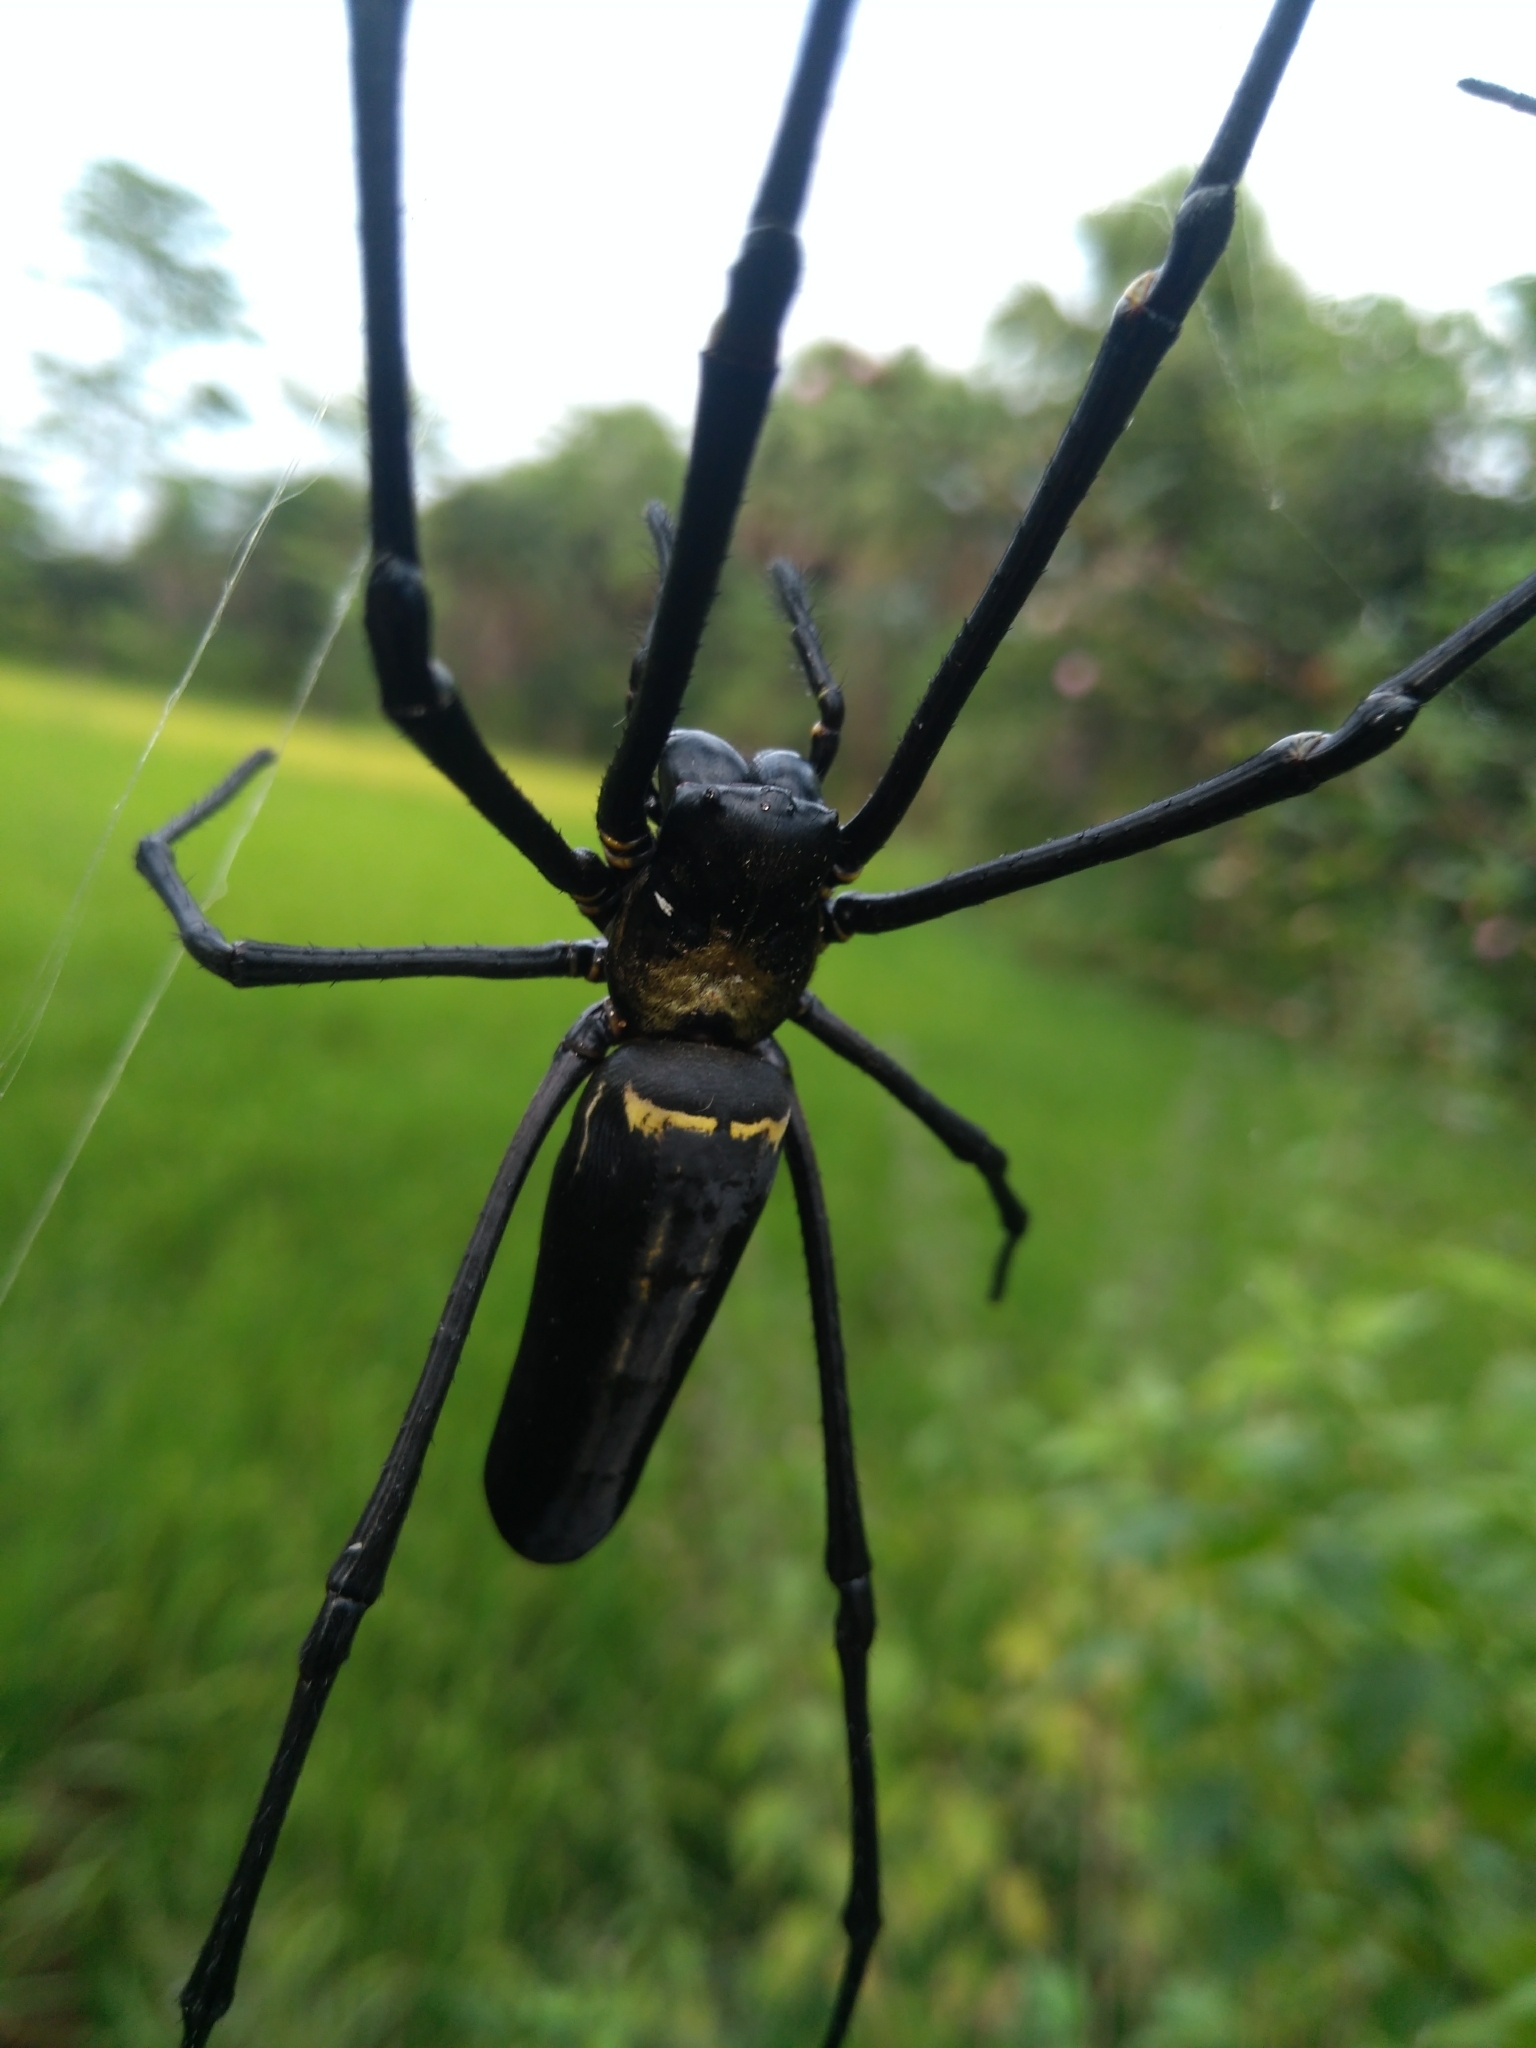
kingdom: Animalia
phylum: Arthropoda
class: Arachnida
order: Araneae
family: Araneidae
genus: Nephila
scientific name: Nephila pilipes
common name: Giant golden orb weaver
